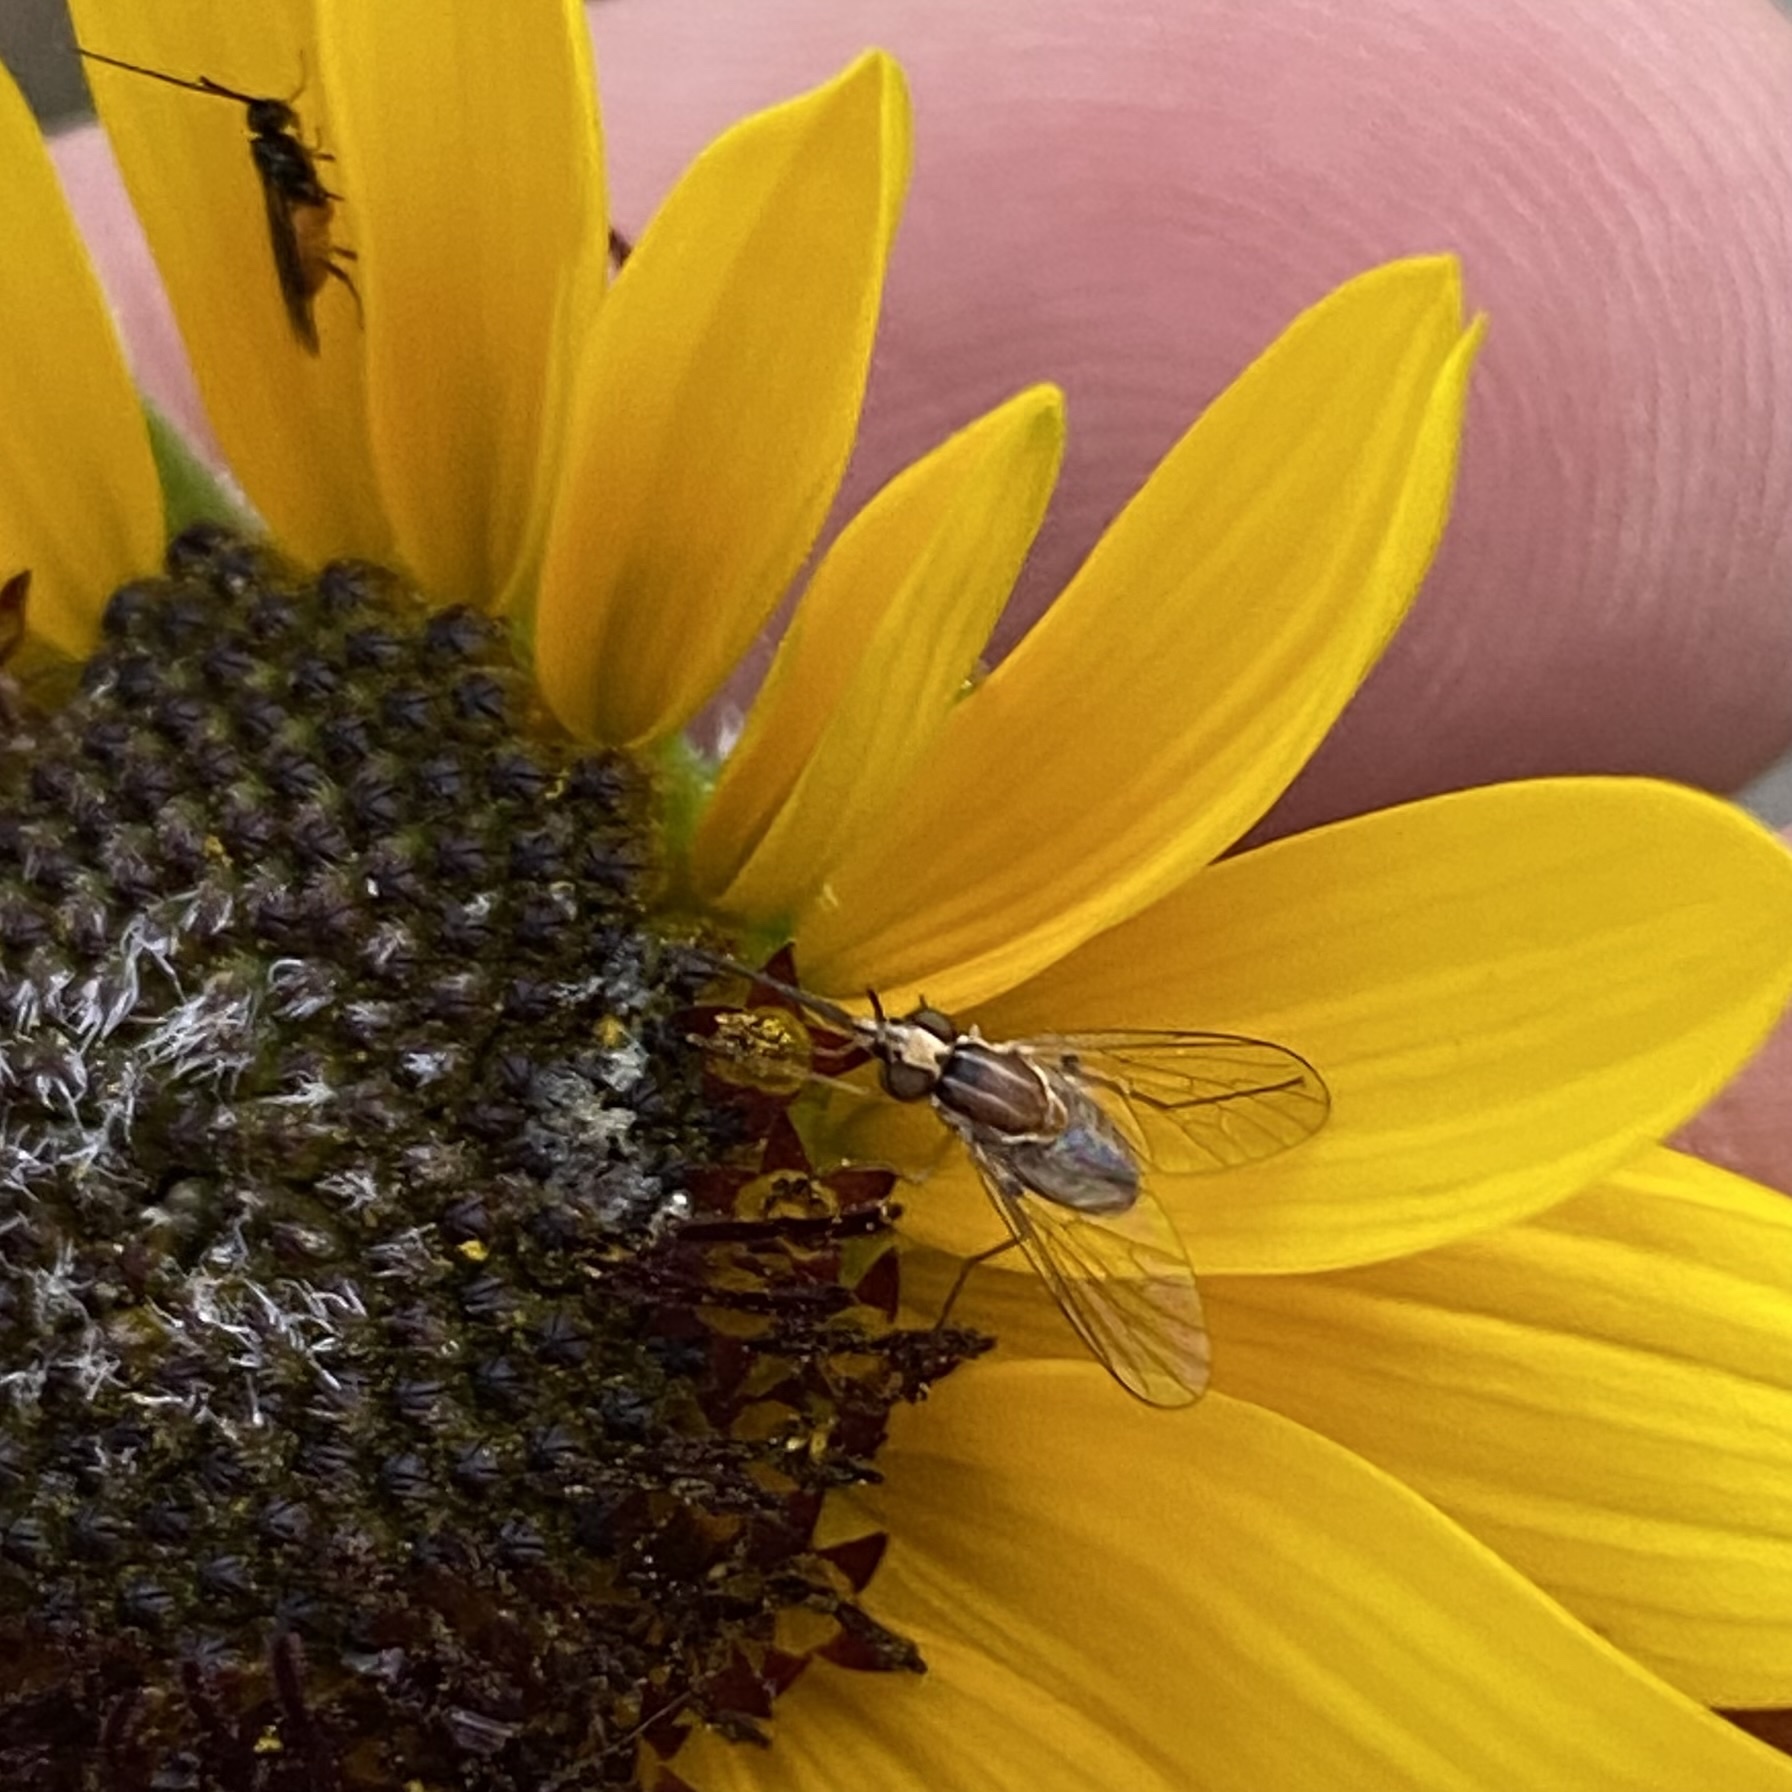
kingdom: Animalia
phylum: Arthropoda
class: Insecta
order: Diptera
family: Bombyliidae
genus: Poecilognathus
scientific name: Poecilognathus
